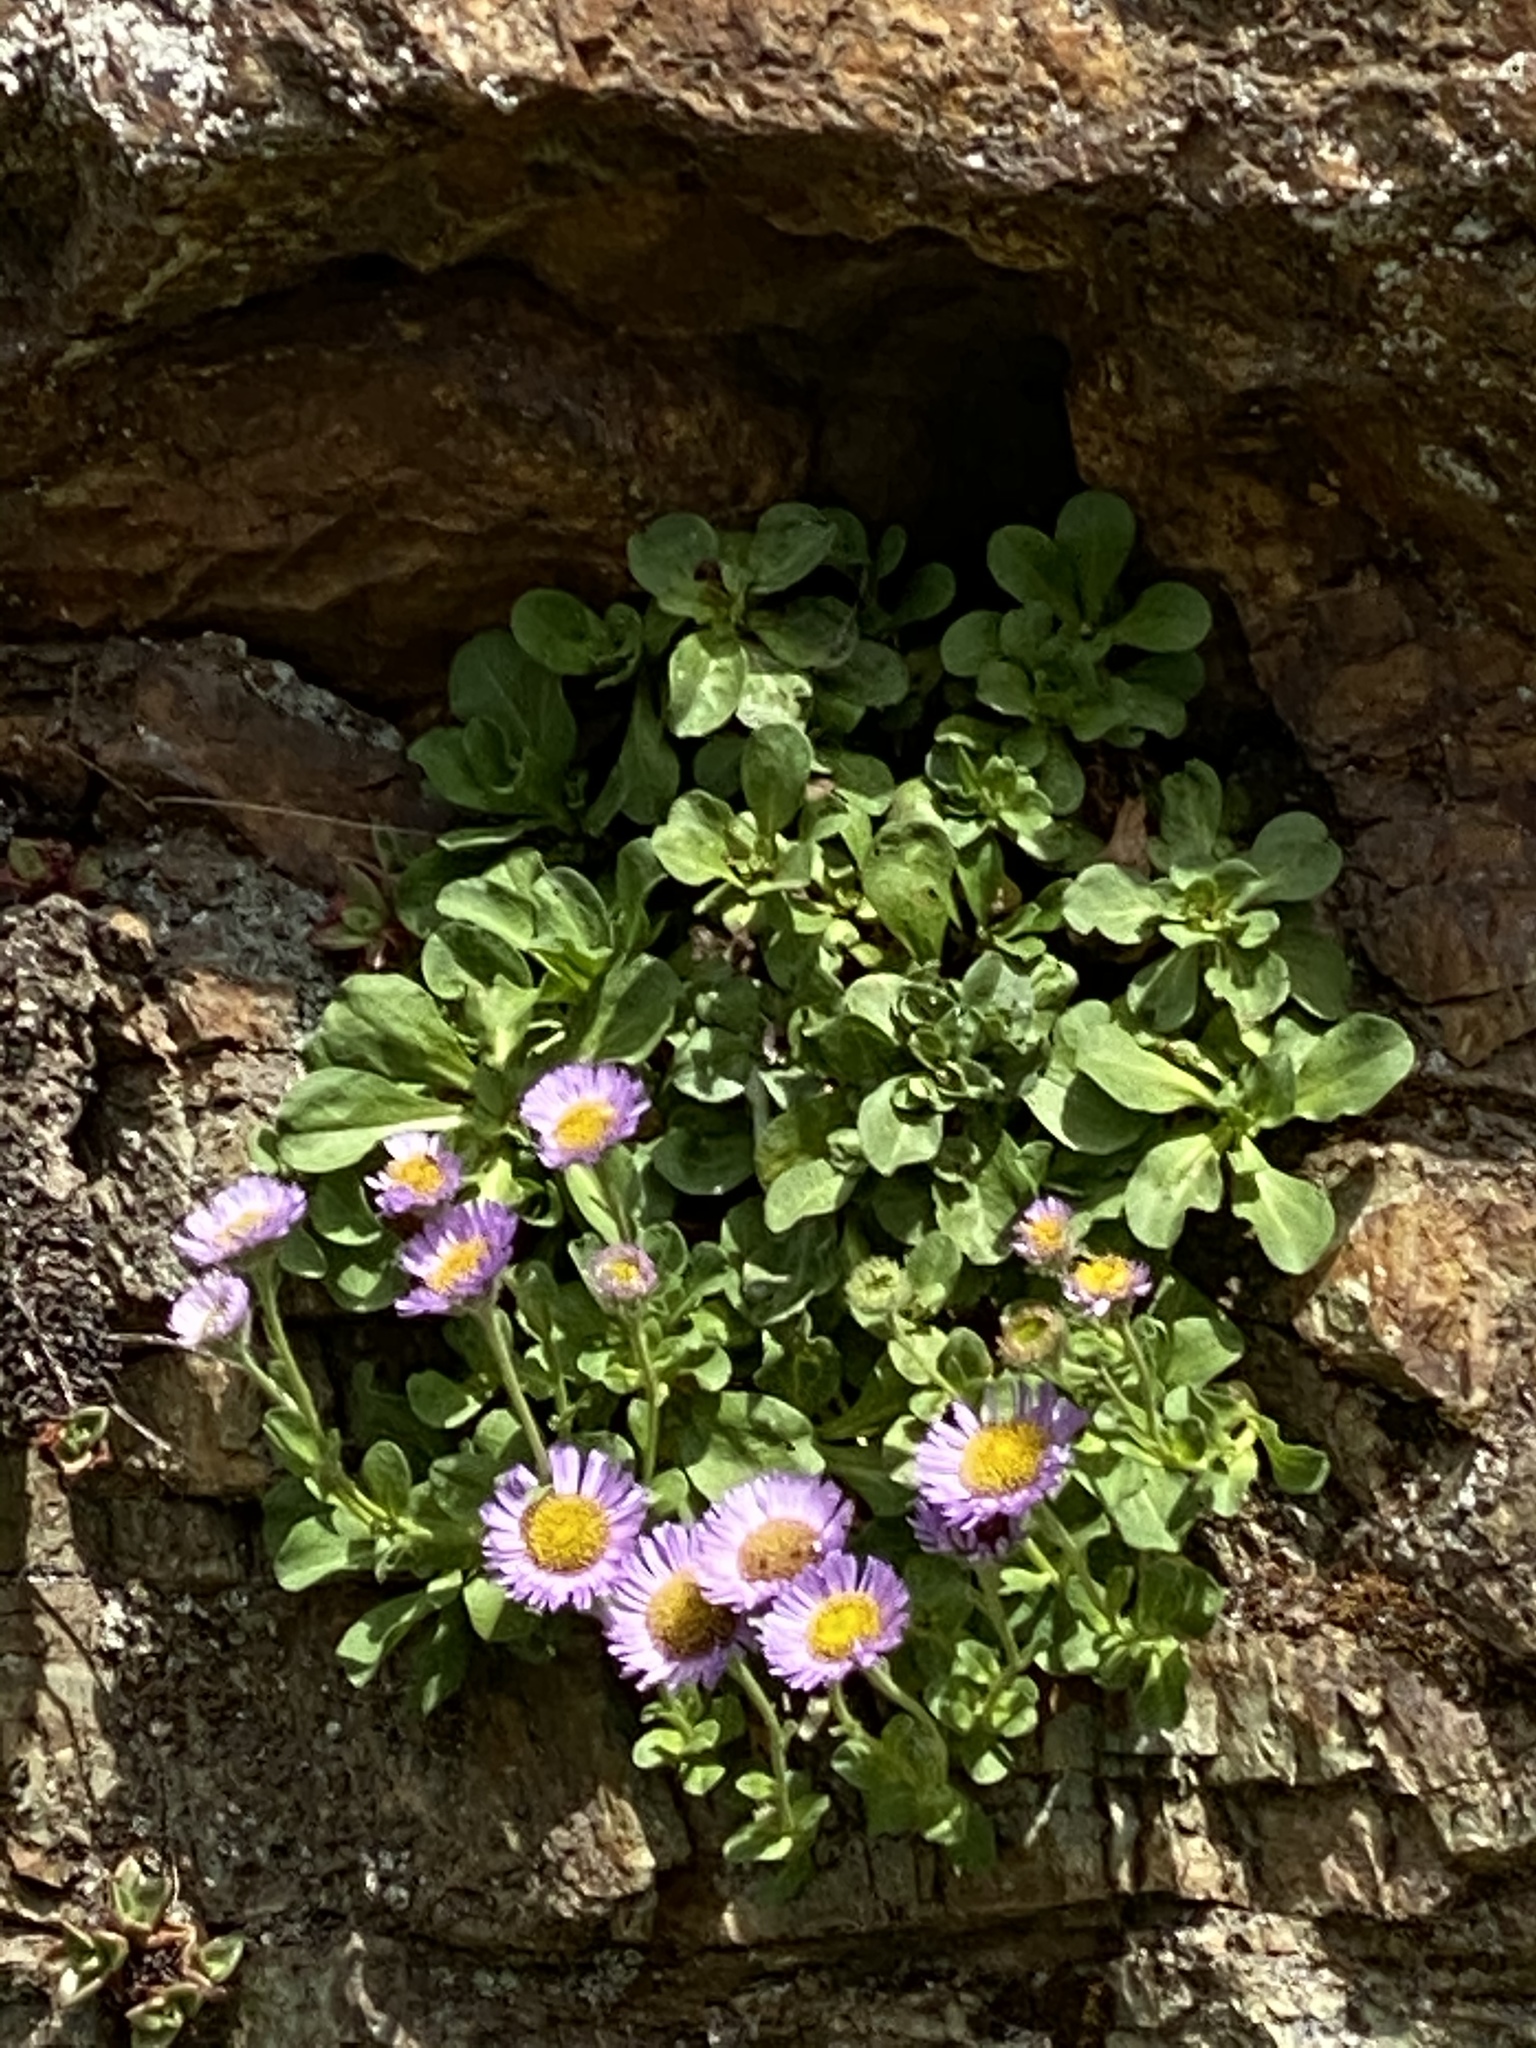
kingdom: Plantae
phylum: Tracheophyta
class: Magnoliopsida
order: Asterales
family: Asteraceae
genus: Erigeron
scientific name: Erigeron glaucus
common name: Seaside daisy
